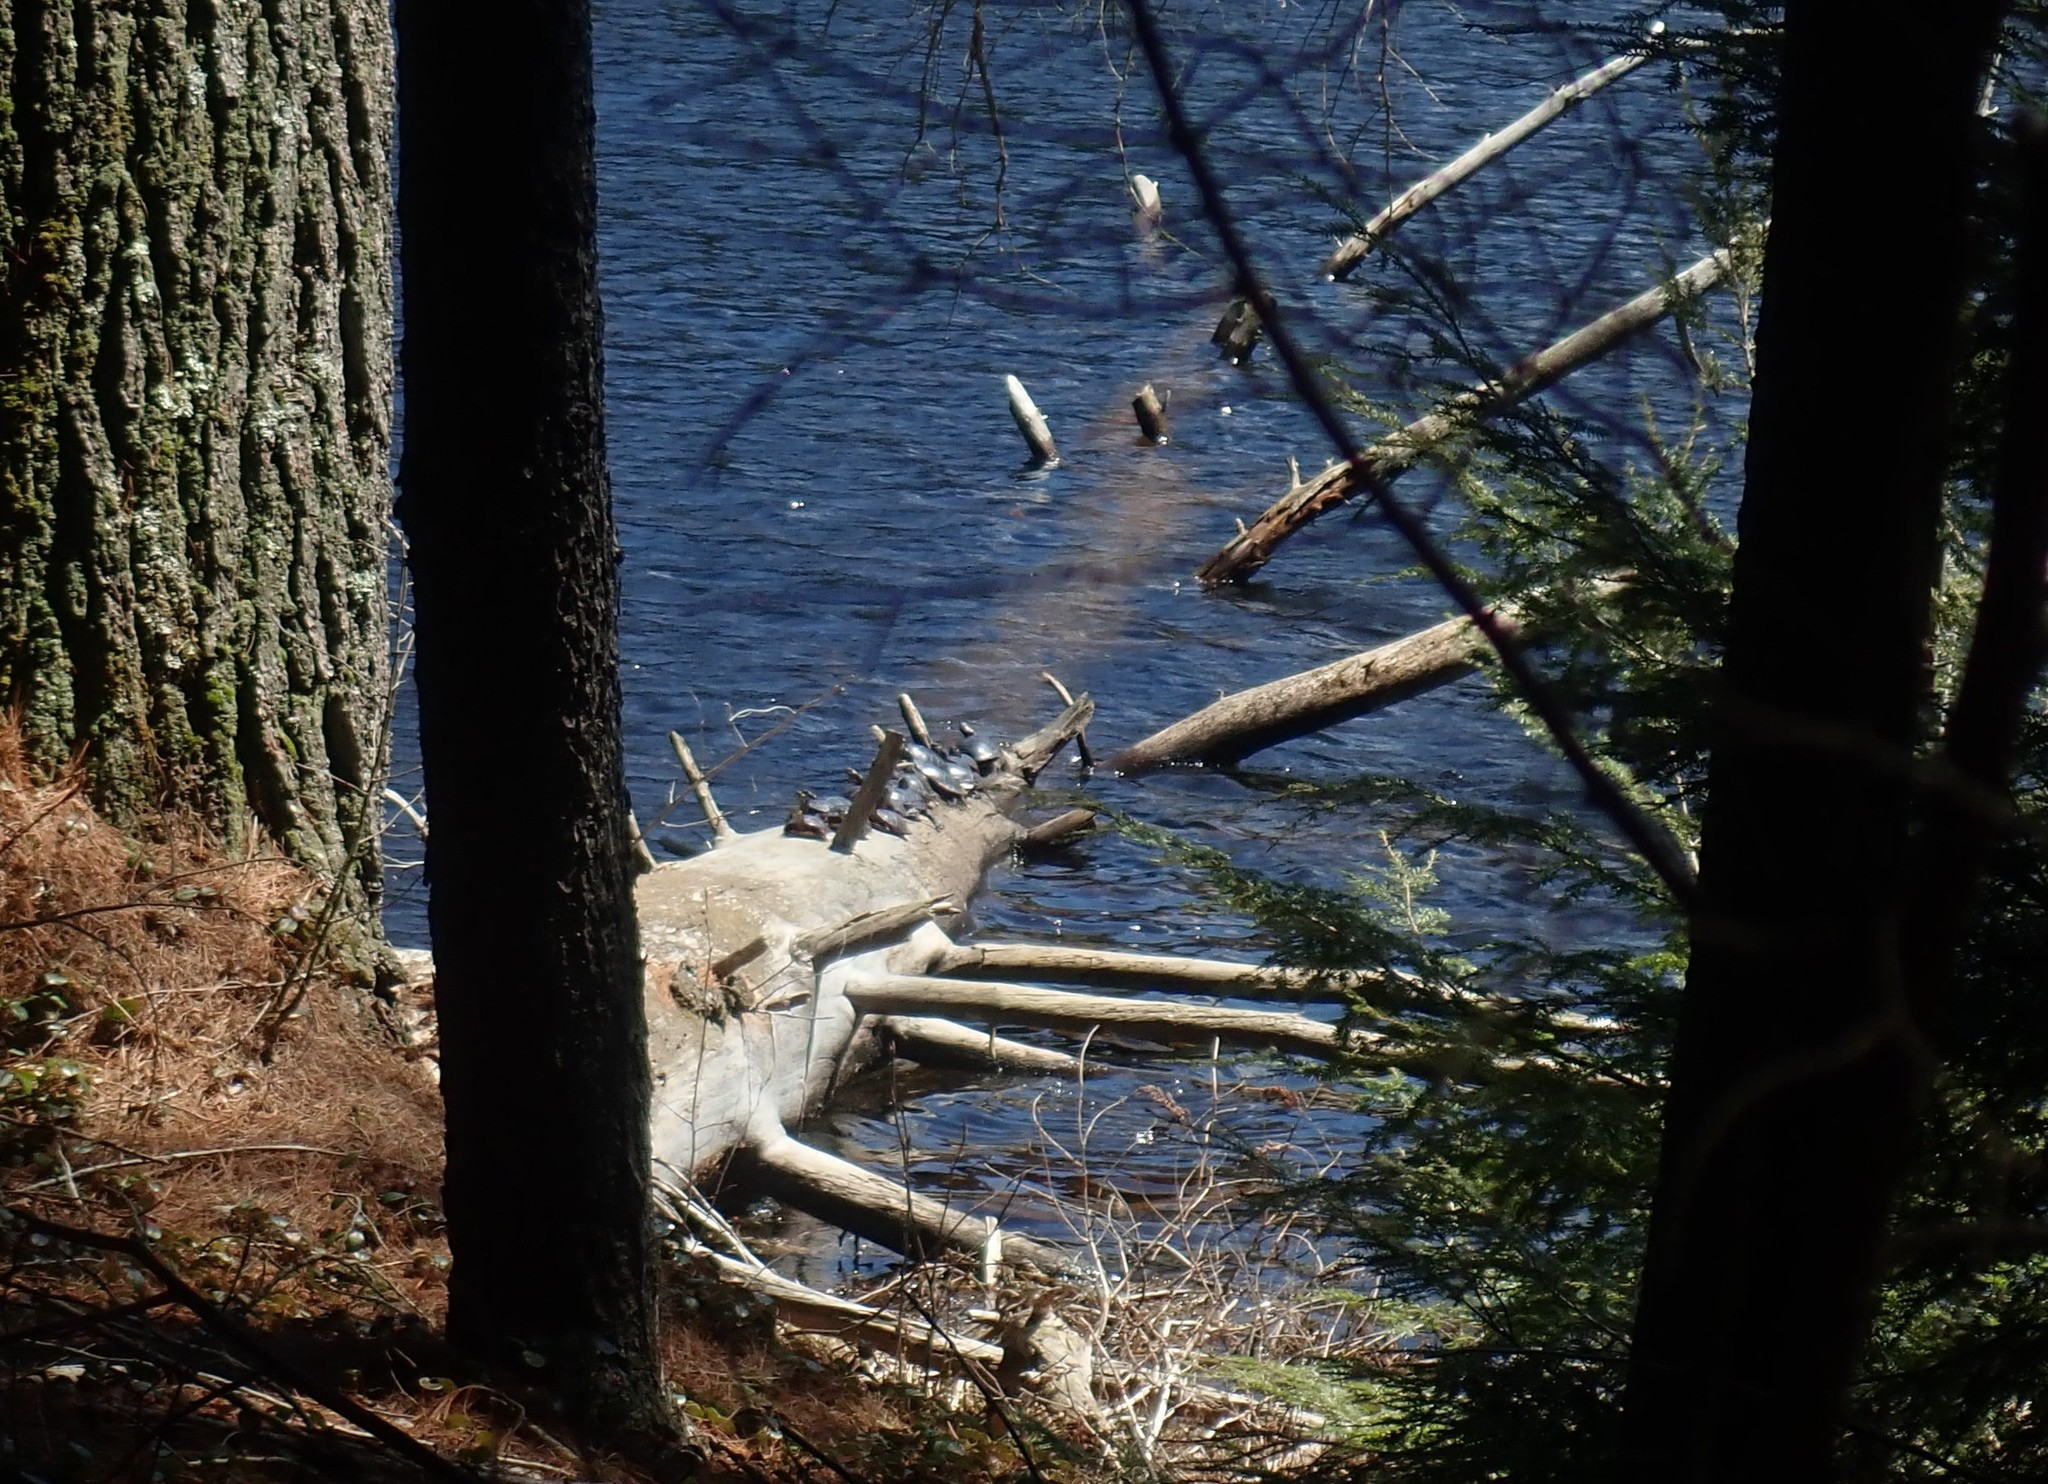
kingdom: Animalia
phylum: Chordata
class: Testudines
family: Emydidae
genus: Chrysemys
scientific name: Chrysemys picta
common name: Painted turtle
